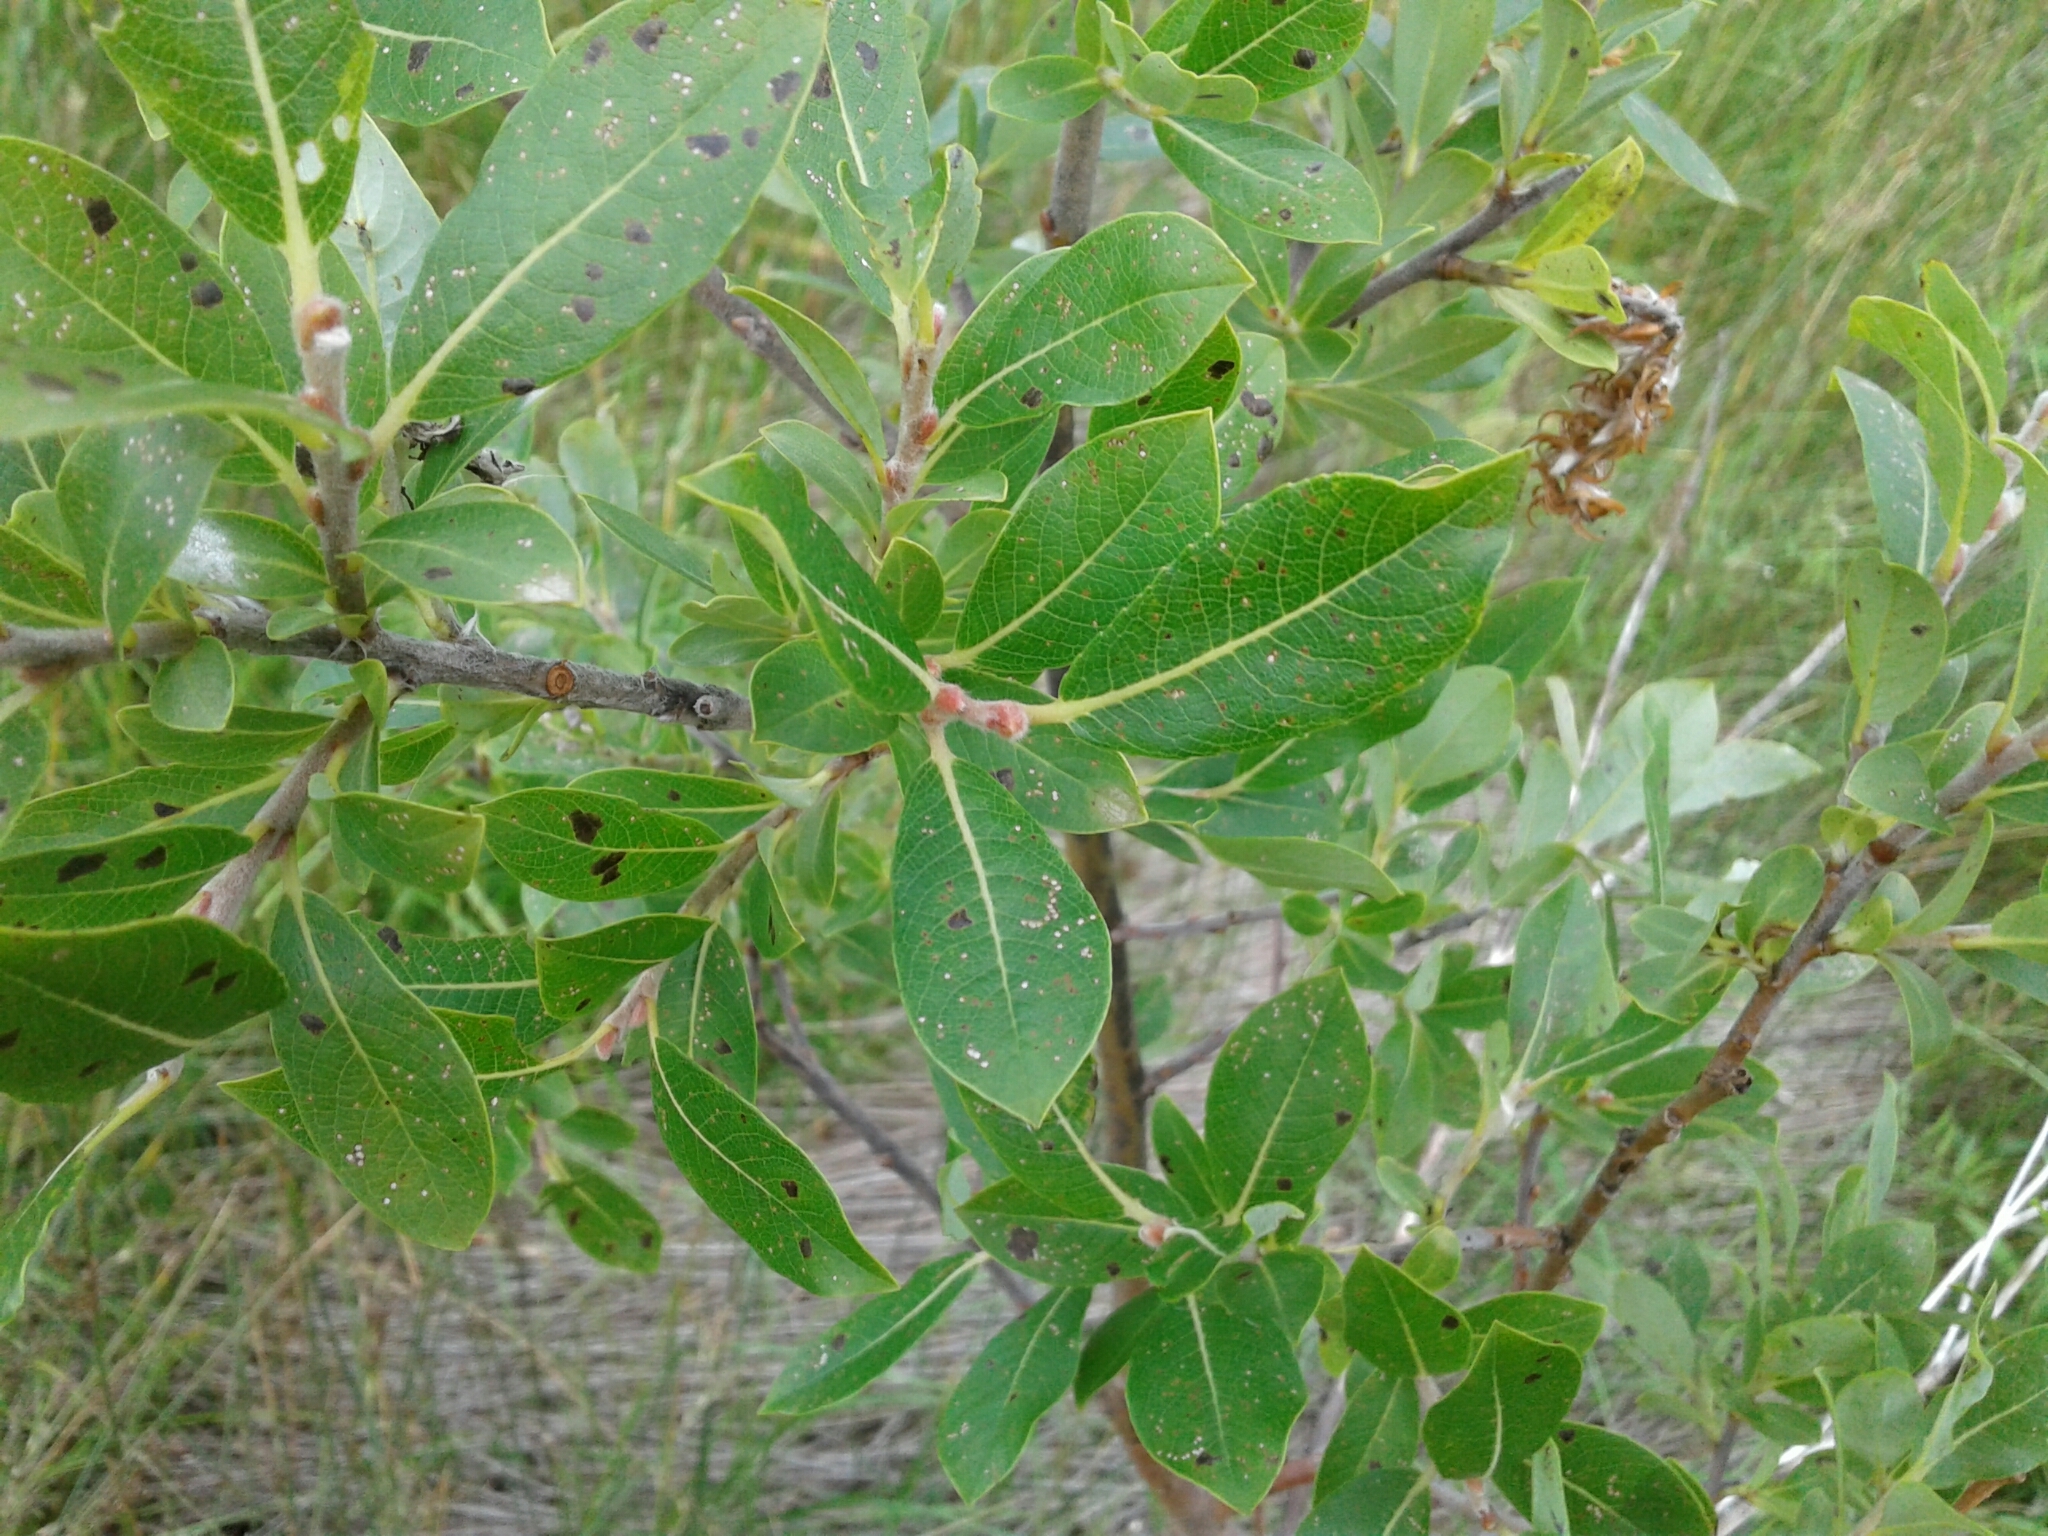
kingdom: Plantae
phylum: Tracheophyta
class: Magnoliopsida
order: Malpighiales
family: Salicaceae
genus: Salix
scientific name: Salix myricoides
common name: Bayberry willow
